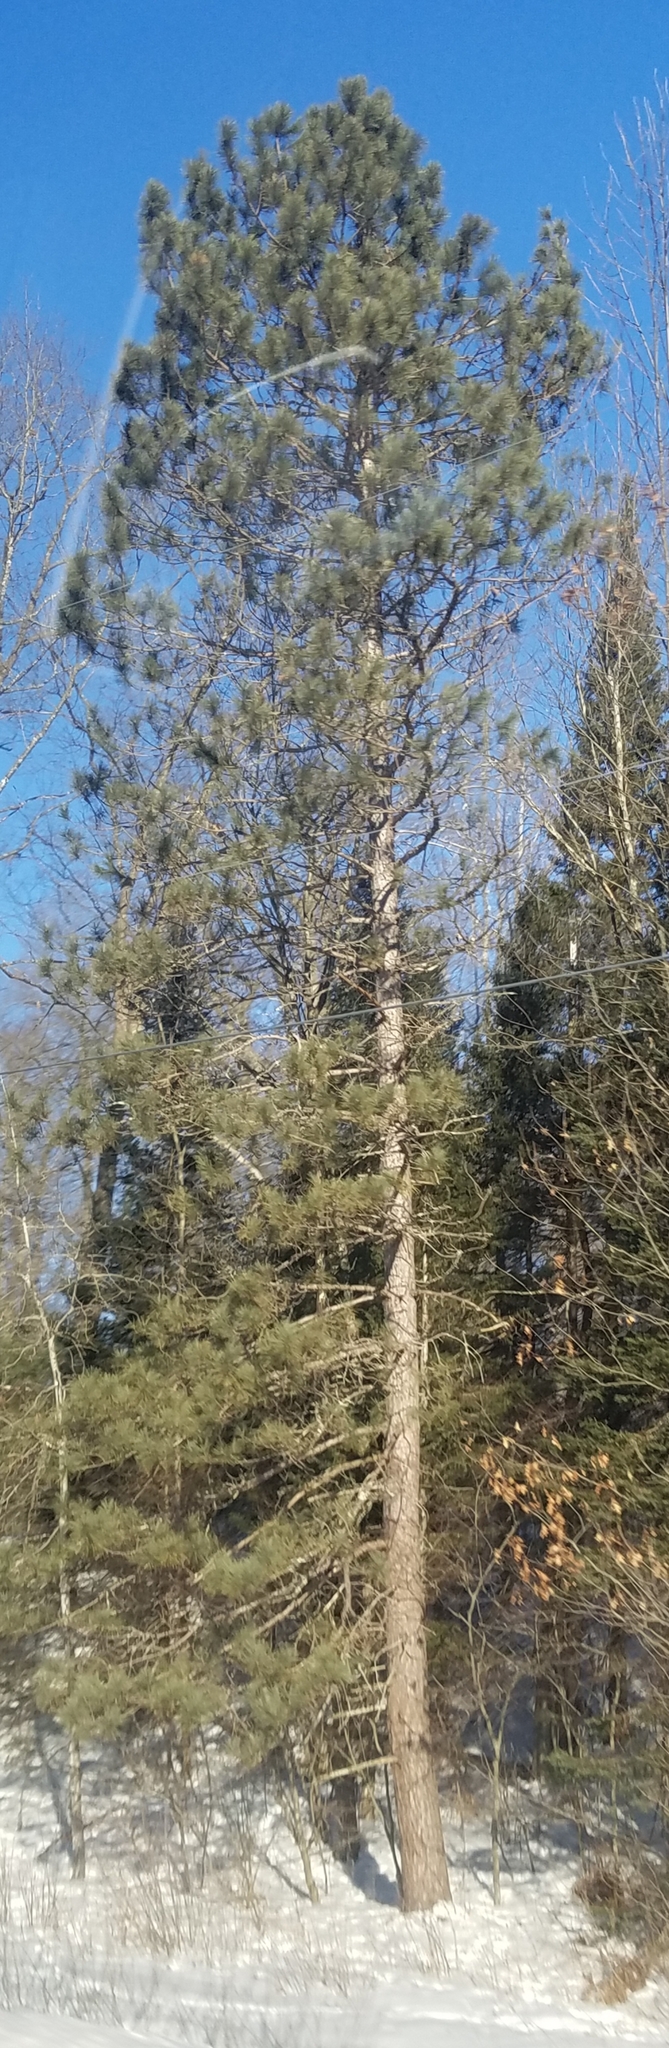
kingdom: Plantae
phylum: Tracheophyta
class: Pinopsida
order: Pinales
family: Pinaceae
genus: Pinus
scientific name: Pinus resinosa
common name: Norway pine
